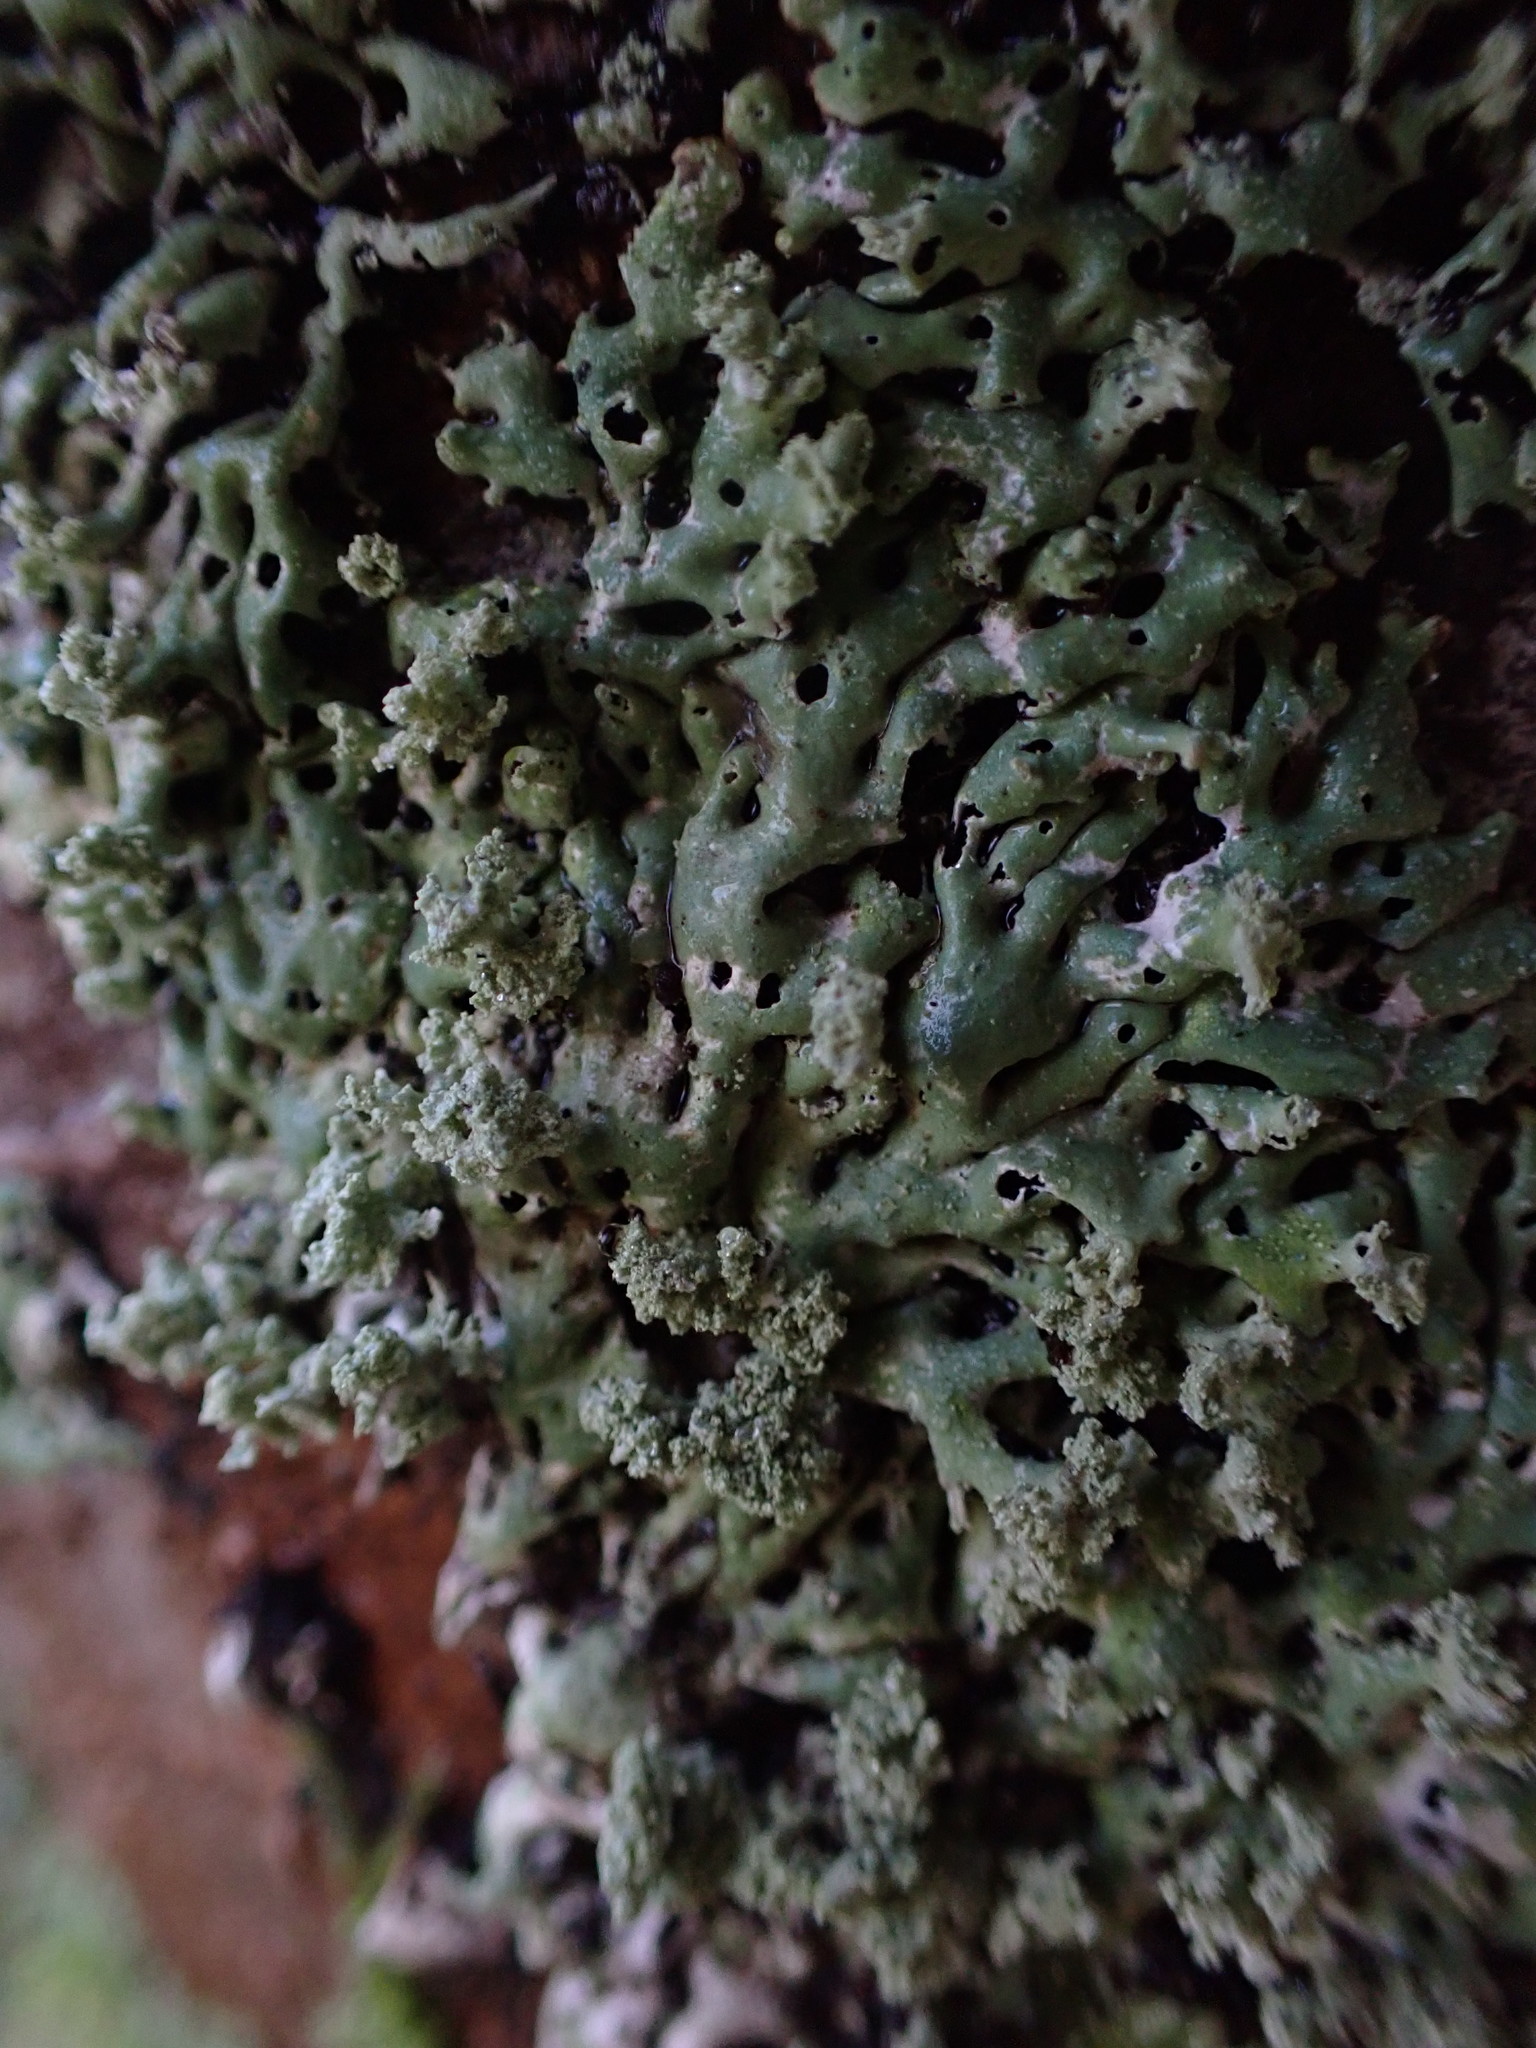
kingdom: Fungi
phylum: Ascomycota
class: Lecanoromycetes
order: Lecanorales
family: Parmeliaceae
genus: Menegazzia
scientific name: Menegazzia subsimilis
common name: Tree flute lichen
